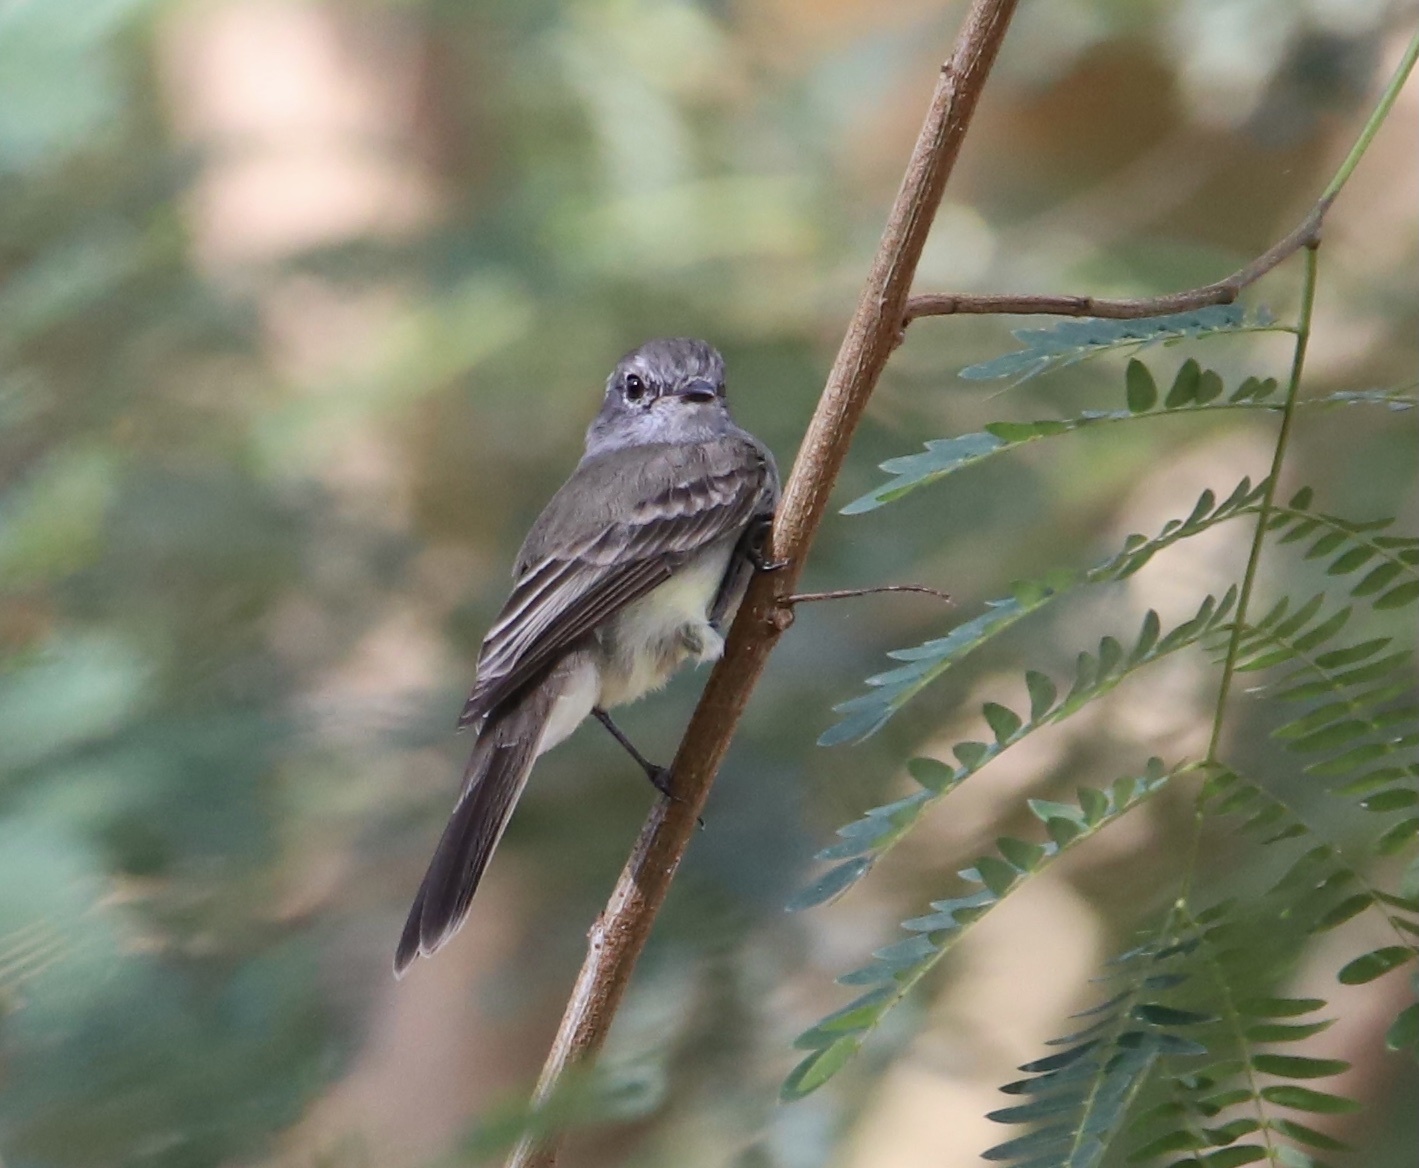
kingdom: Animalia
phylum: Chordata
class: Aves
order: Passeriformes
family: Tyrannidae
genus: Sublegatus
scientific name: Sublegatus arenarum
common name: Northern scrub-flycatcher
